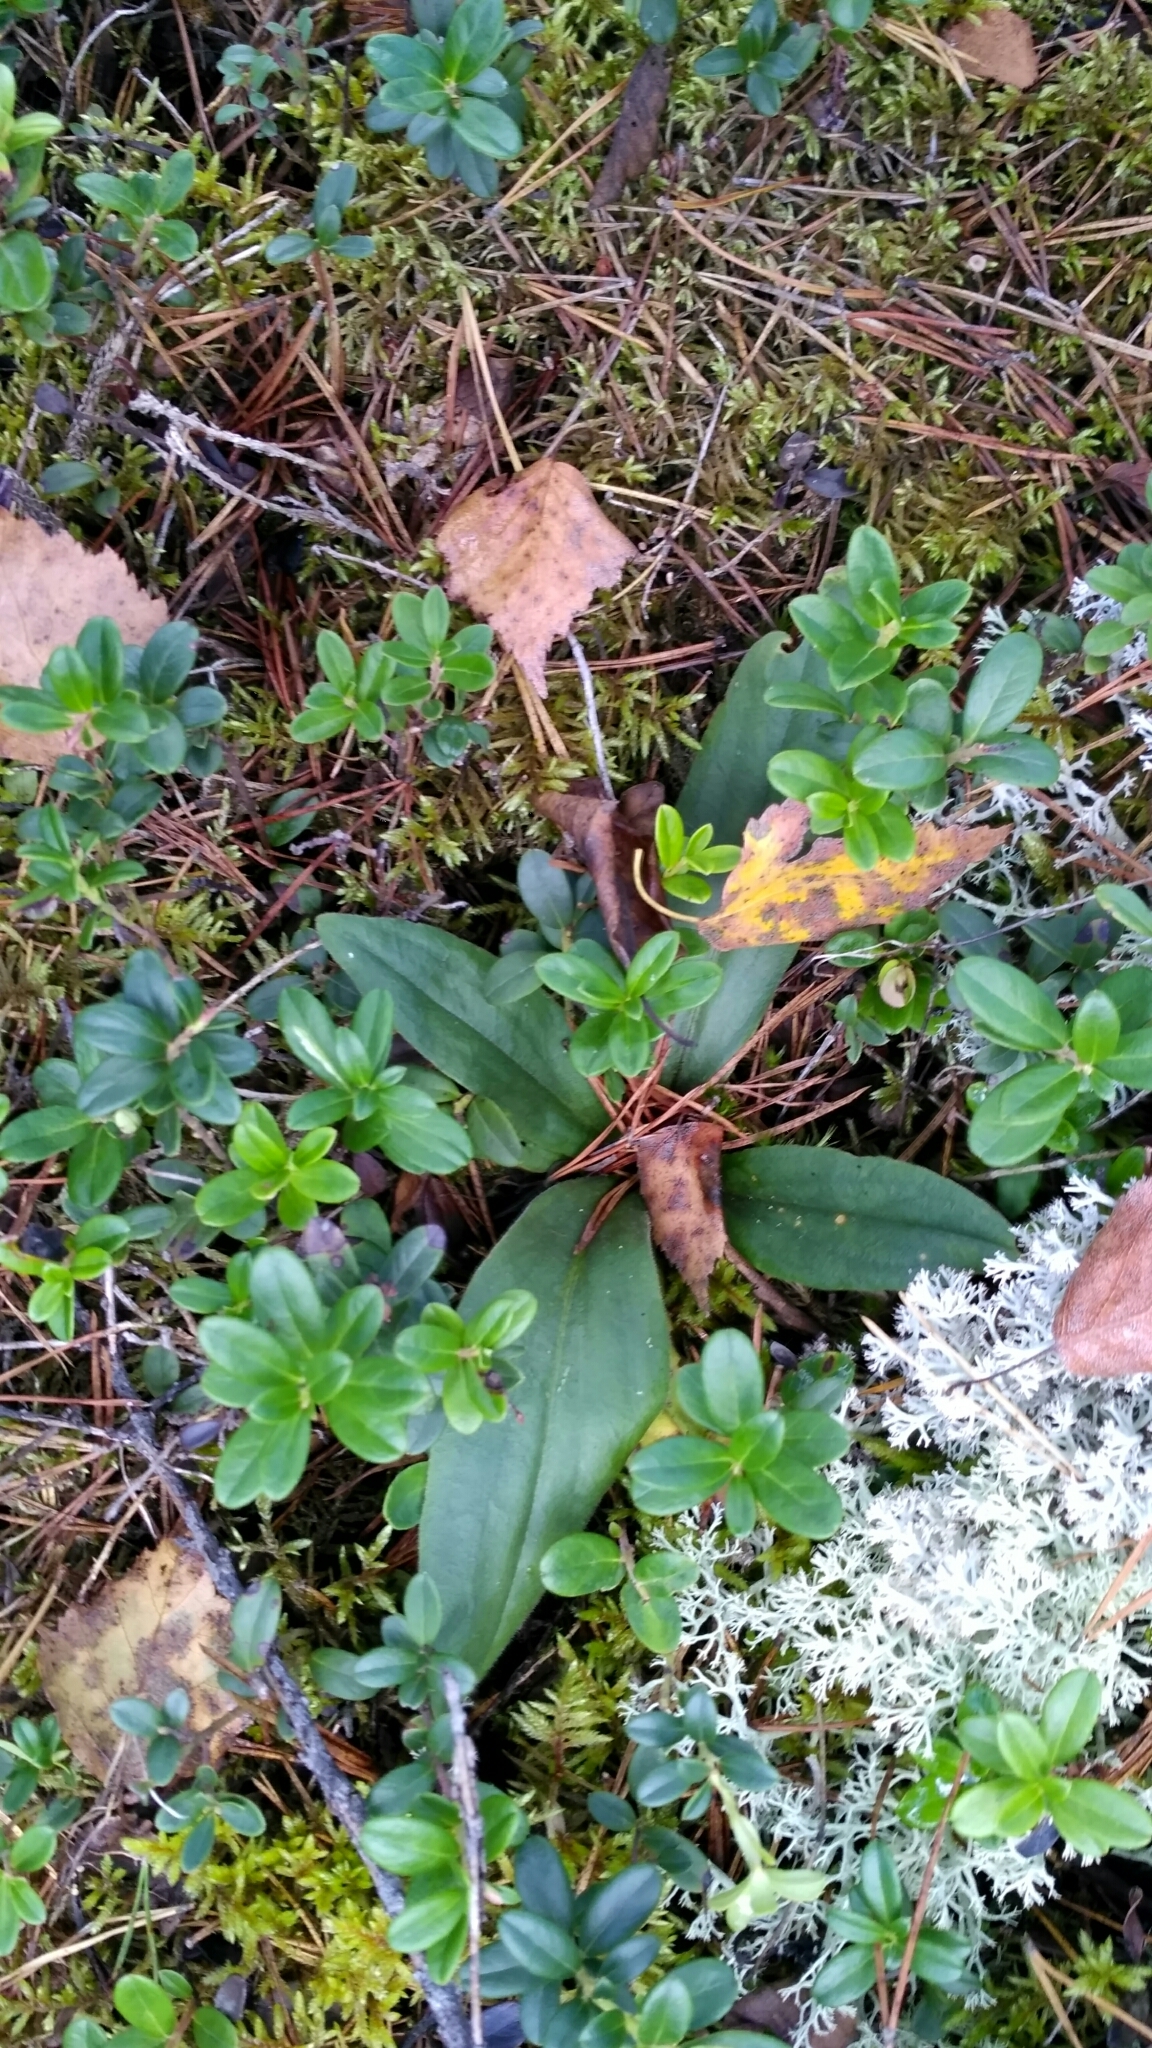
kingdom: Plantae
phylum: Tracheophyta
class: Magnoliopsida
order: Asterales
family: Asteraceae
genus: Arnica
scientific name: Arnica montana
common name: Leopard's bane
